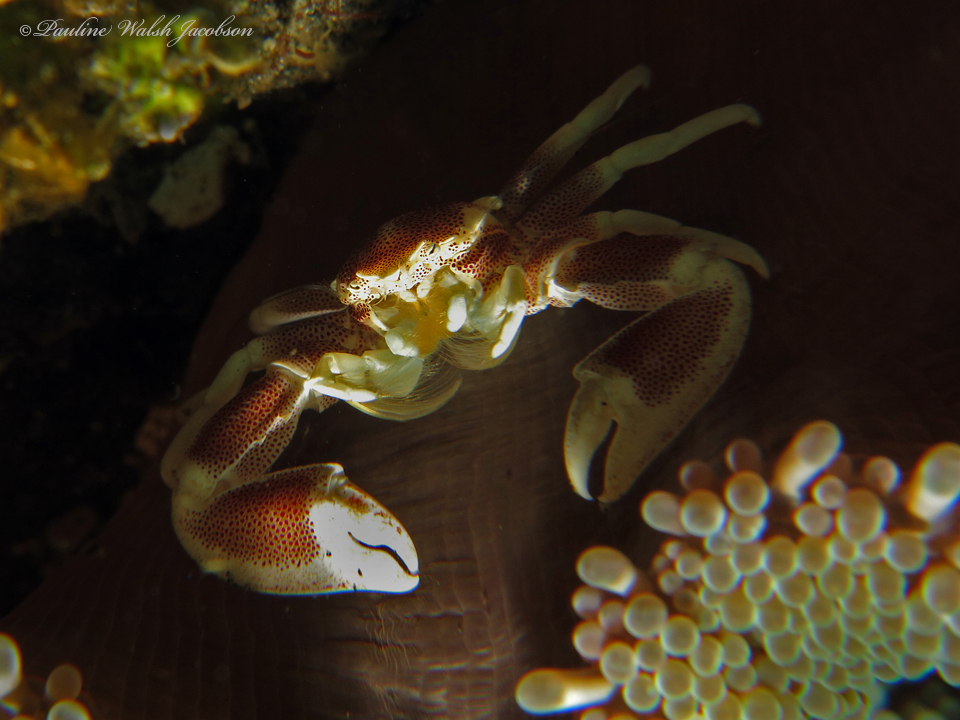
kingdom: Animalia
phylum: Arthropoda
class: Malacostraca
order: Decapoda
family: Porcellanidae
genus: Neopetrolisthes
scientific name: Neopetrolisthes maculatus
